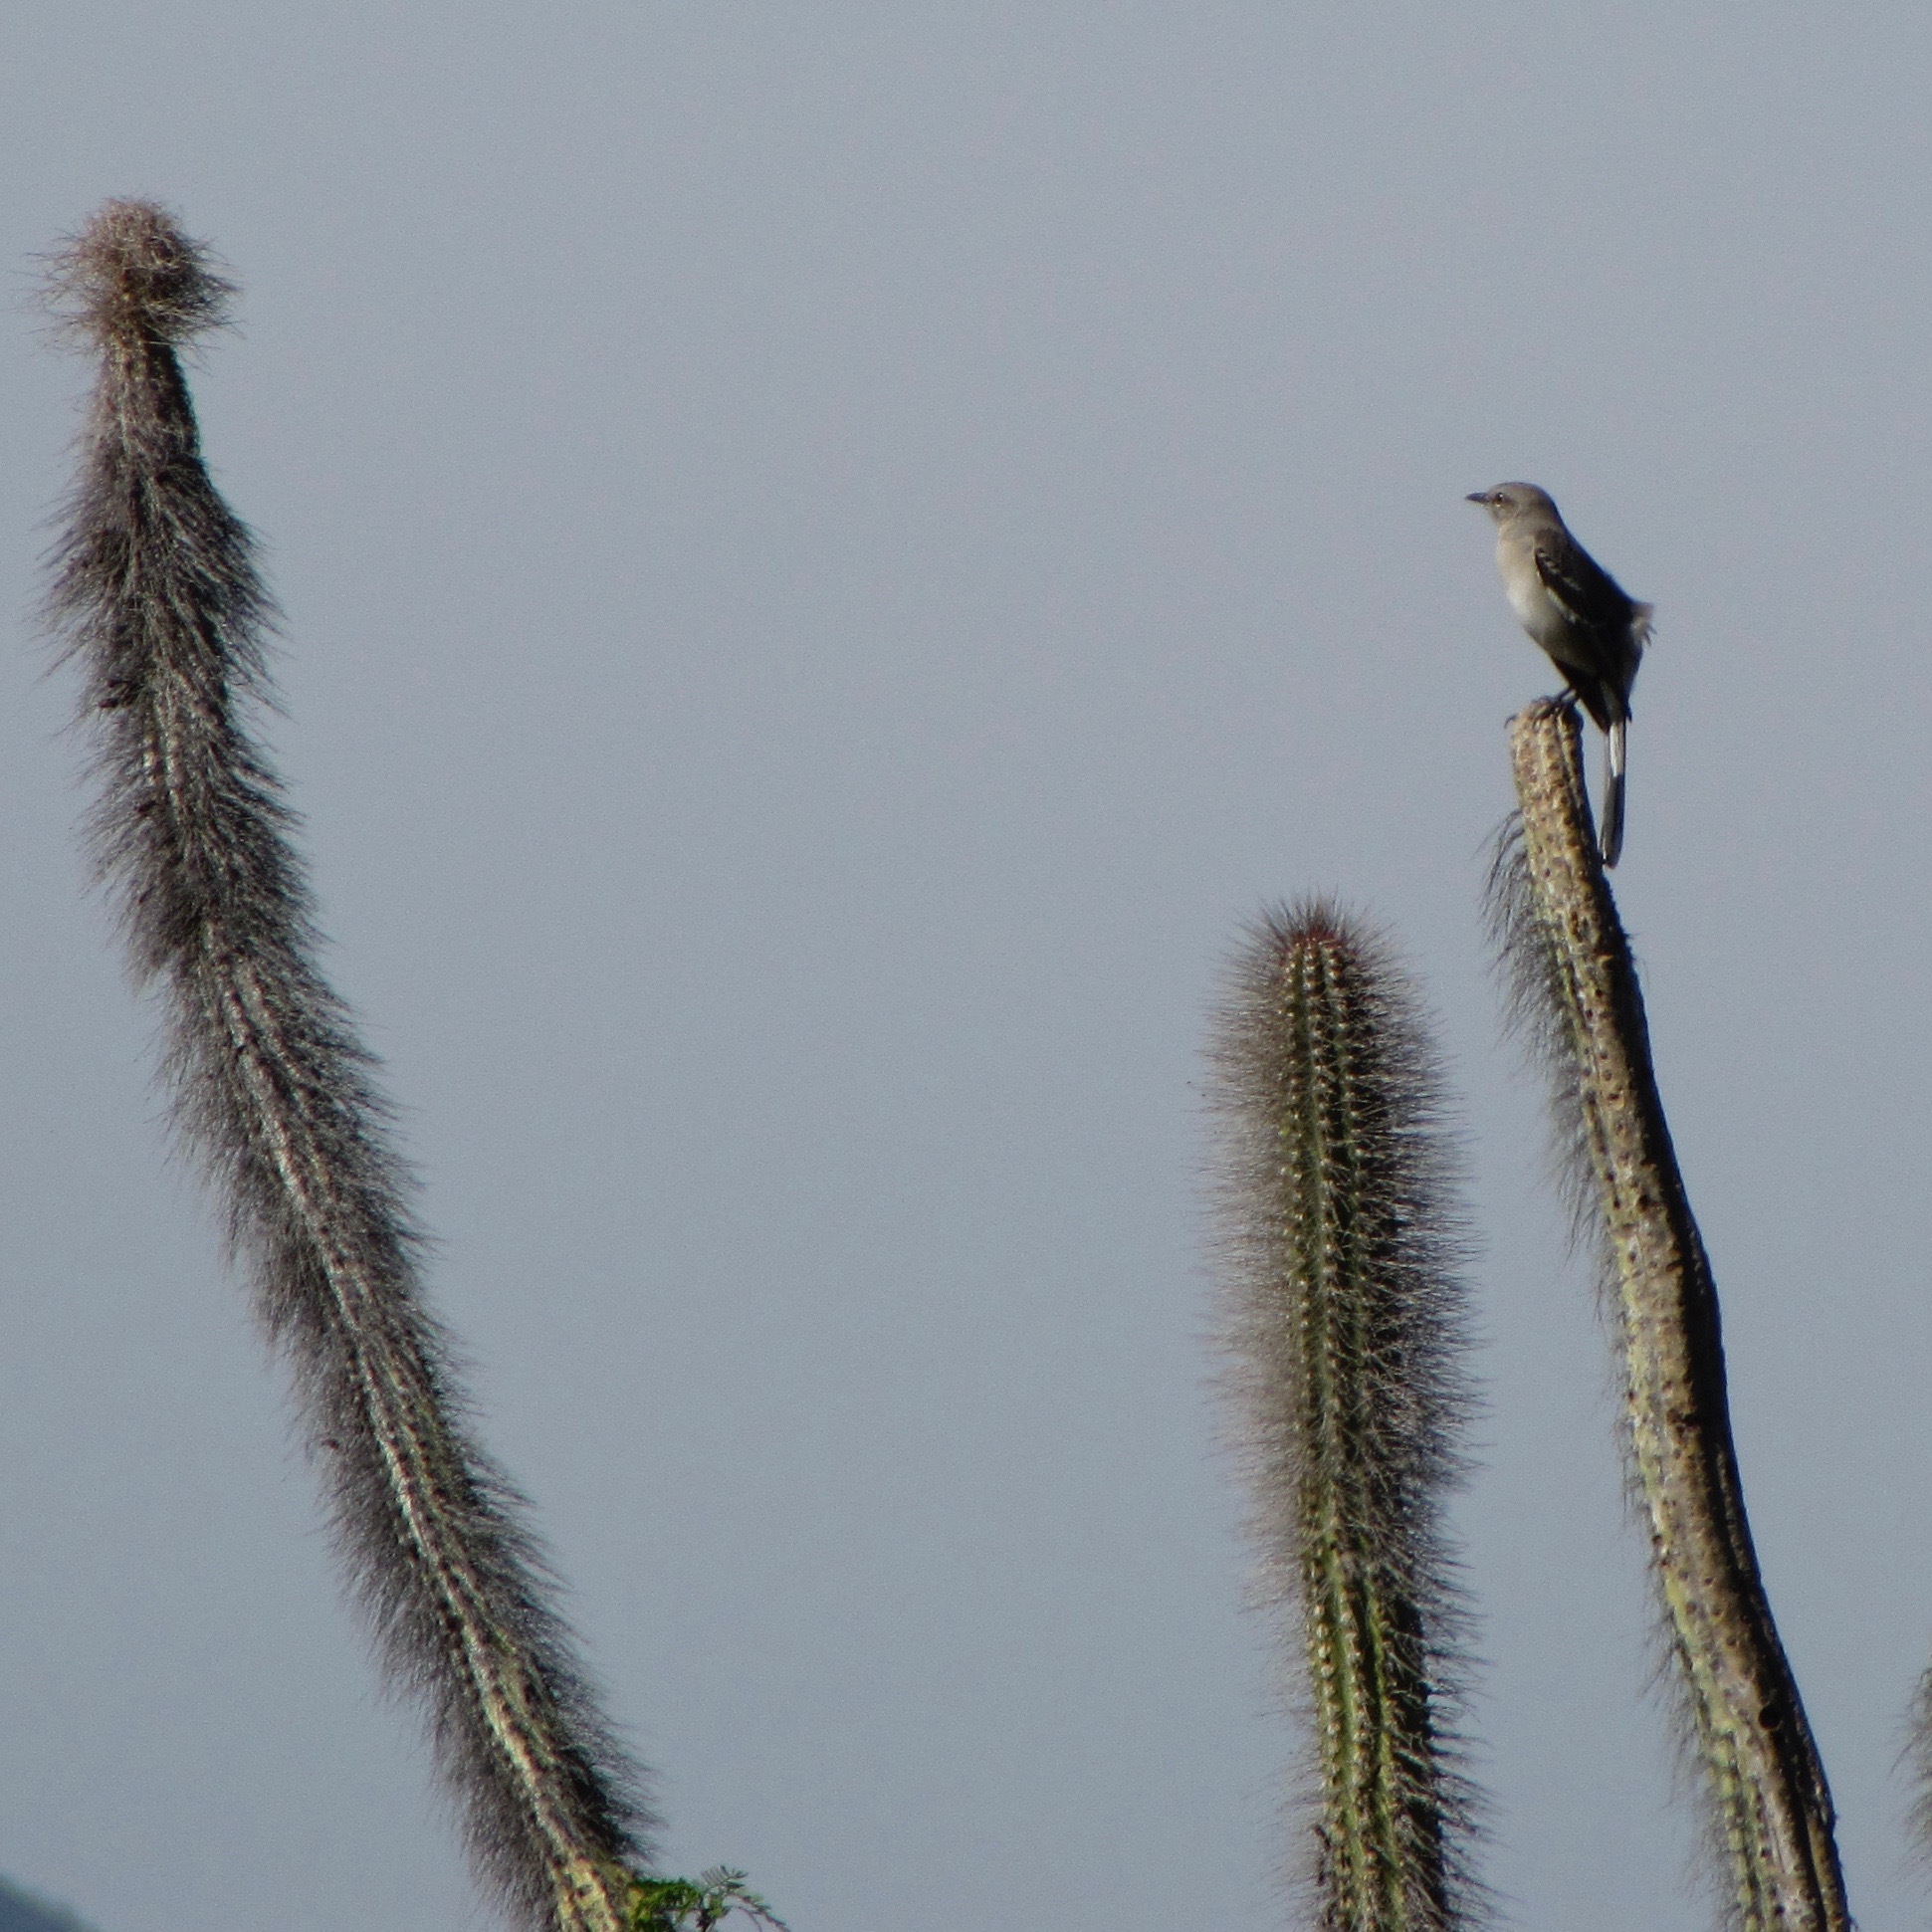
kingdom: Plantae
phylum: Tracheophyta
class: Magnoliopsida
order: Caryophyllales
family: Cactaceae
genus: Pachycereus
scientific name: Pachycereus schottii
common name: Senita cactus
